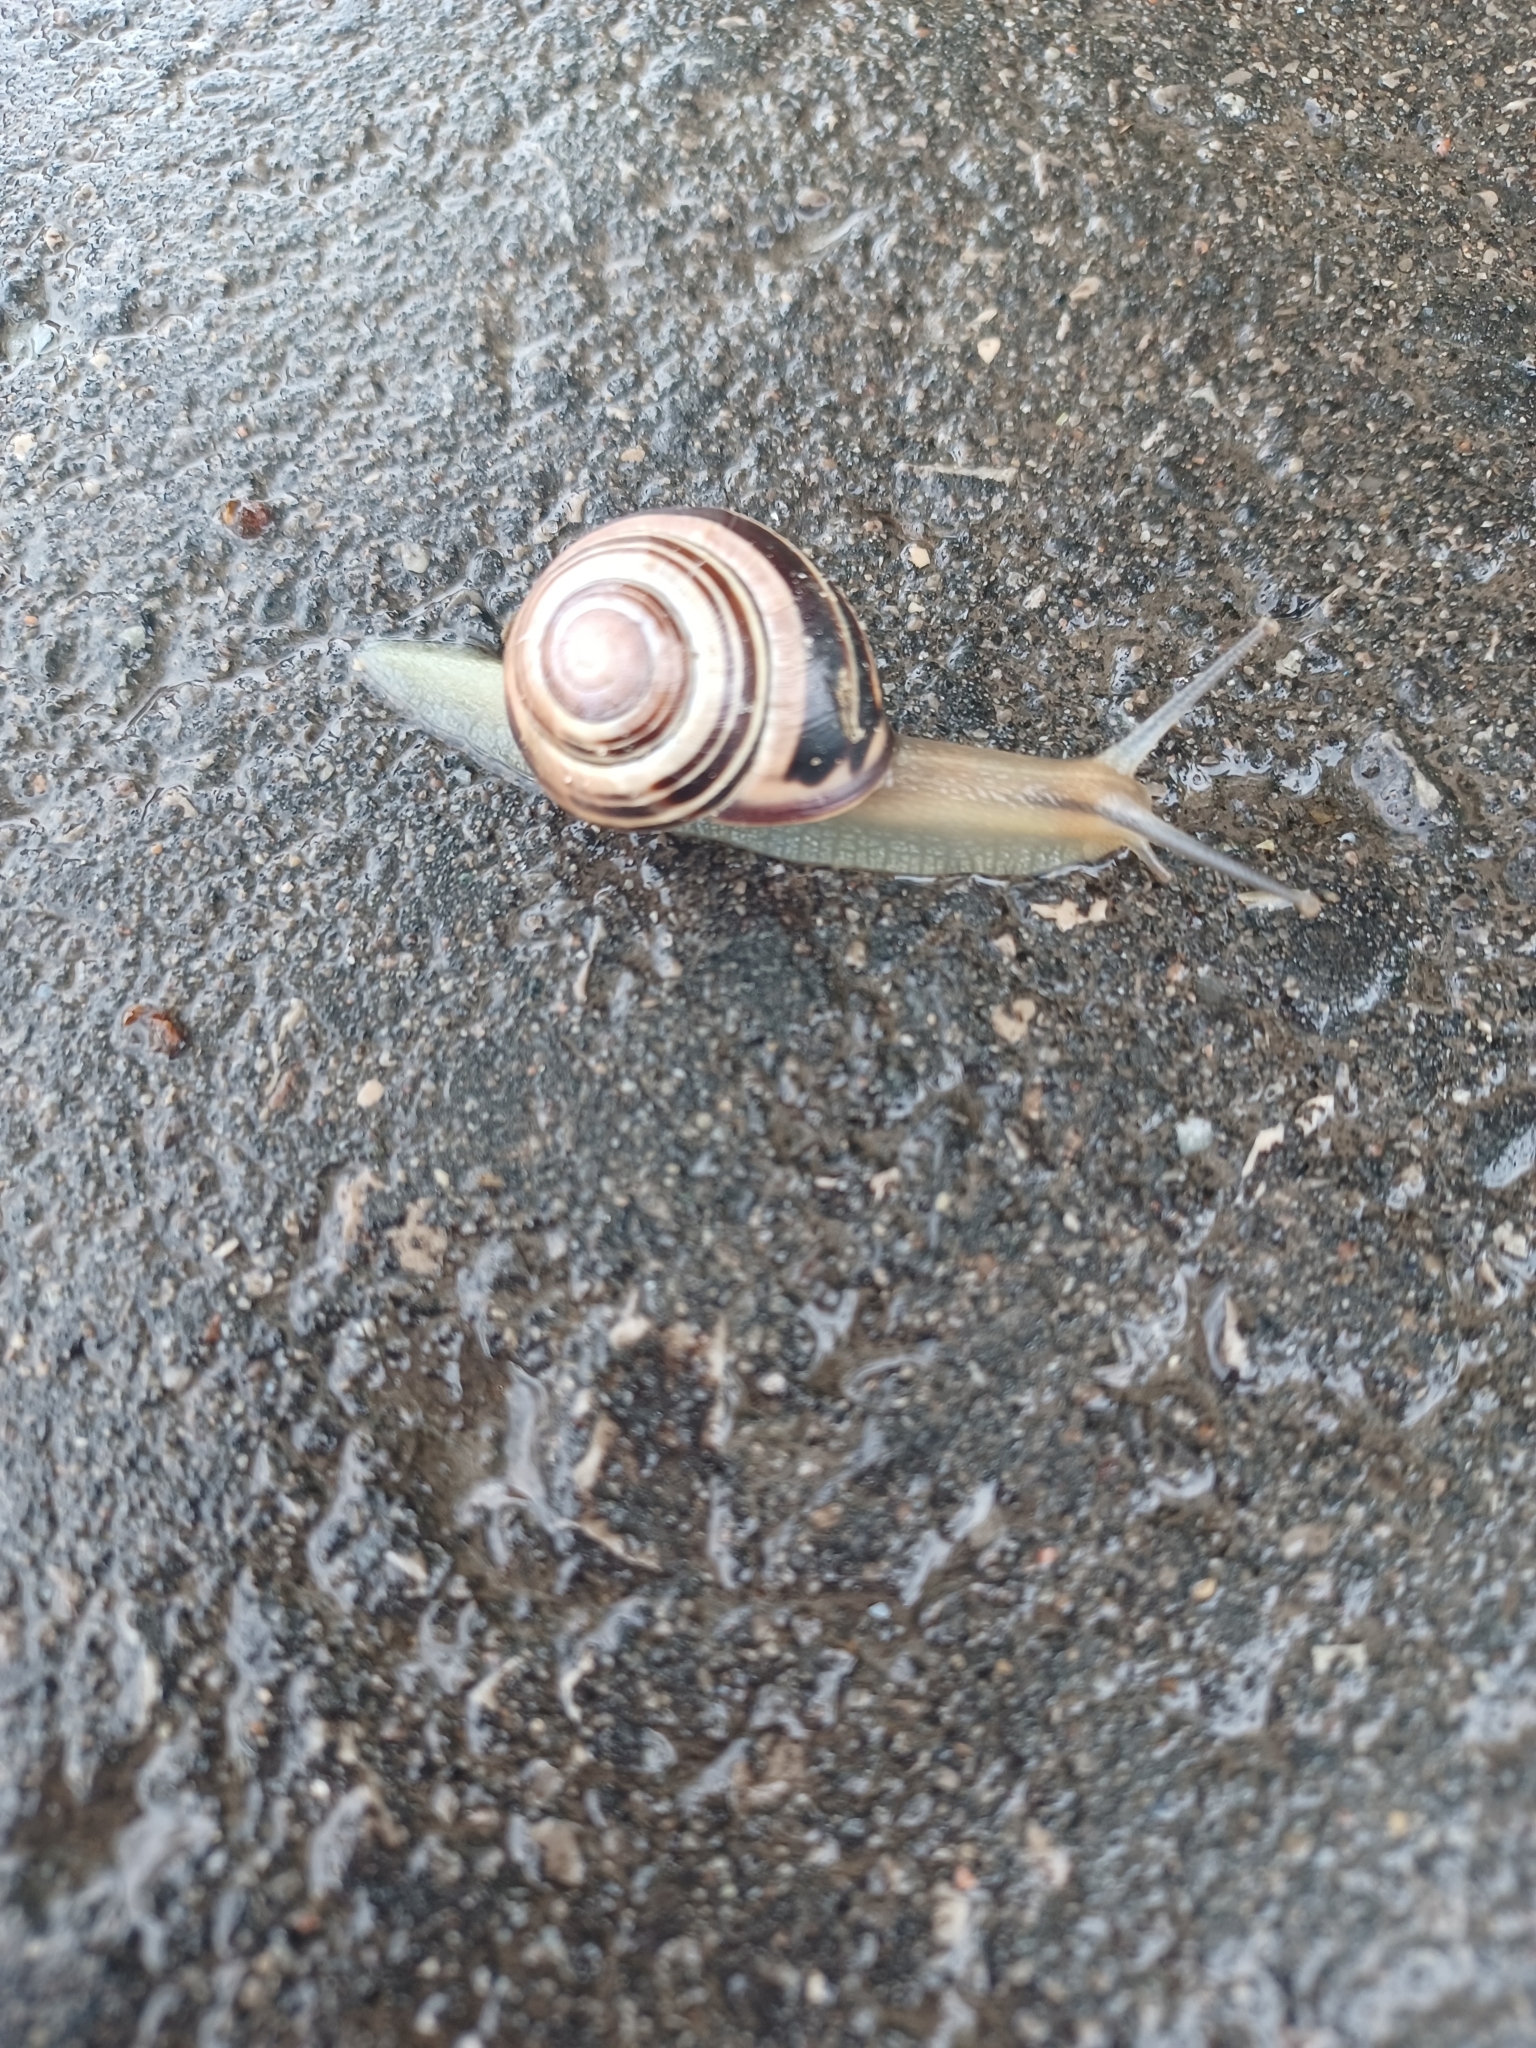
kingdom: Animalia
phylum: Mollusca
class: Gastropoda
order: Stylommatophora
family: Helicidae
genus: Cepaea
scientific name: Cepaea nemoralis
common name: Grovesnail
